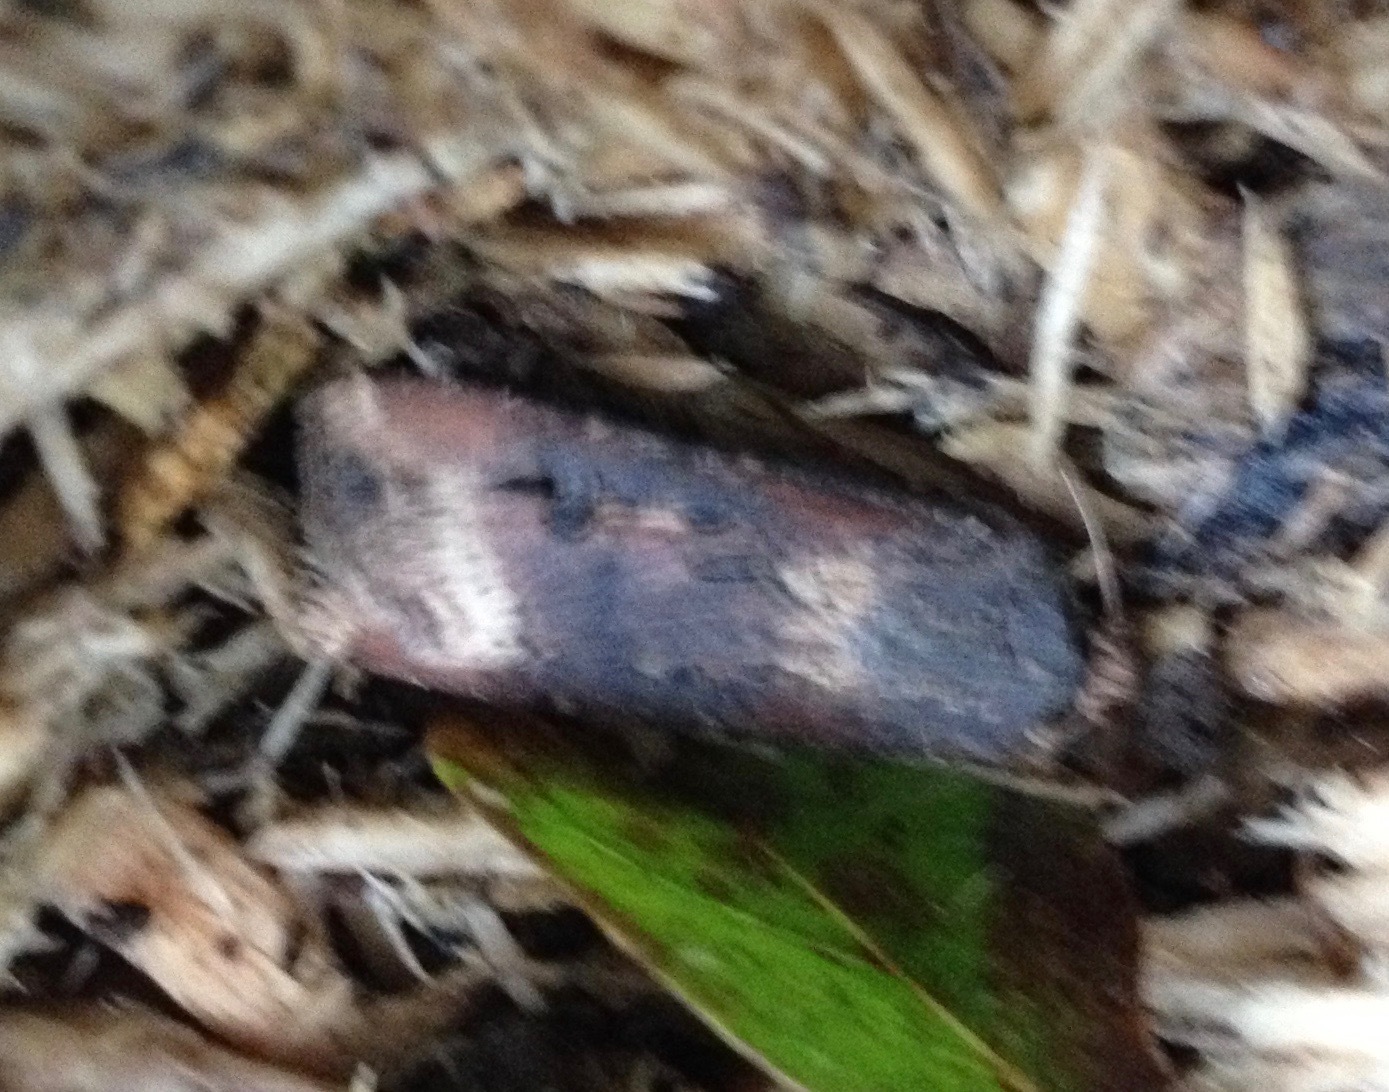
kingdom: Animalia
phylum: Arthropoda
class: Insecta
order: Lepidoptera
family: Noctuidae
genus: Agrotis
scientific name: Agrotis ipsilon
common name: Dark sword-grass
